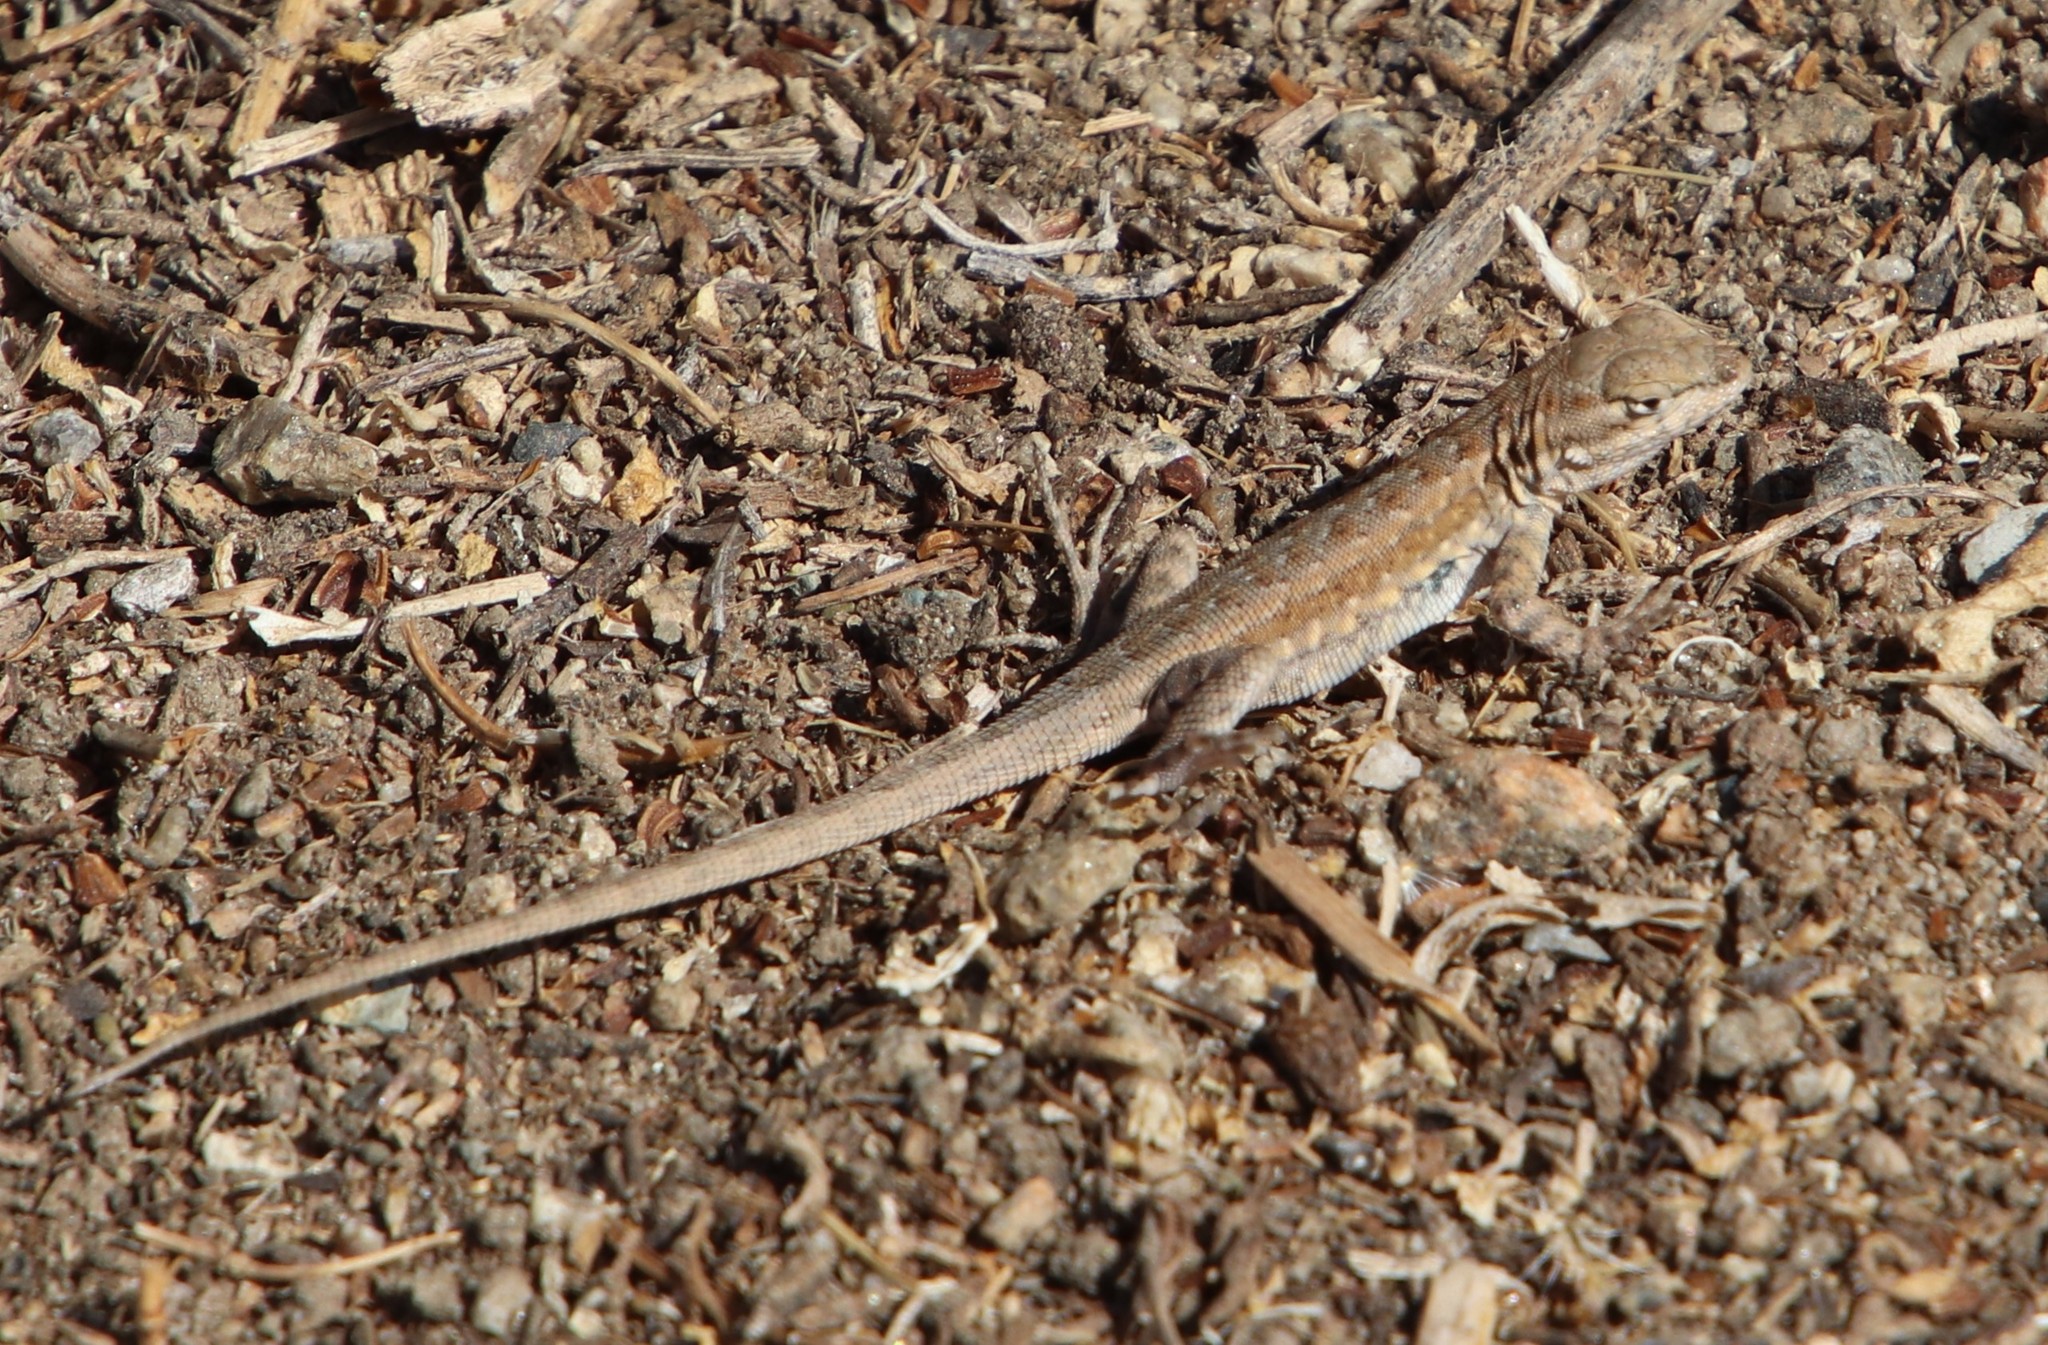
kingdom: Animalia
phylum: Chordata
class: Squamata
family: Phrynosomatidae
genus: Uta
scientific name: Uta stansburiana
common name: Side-blotched lizard
